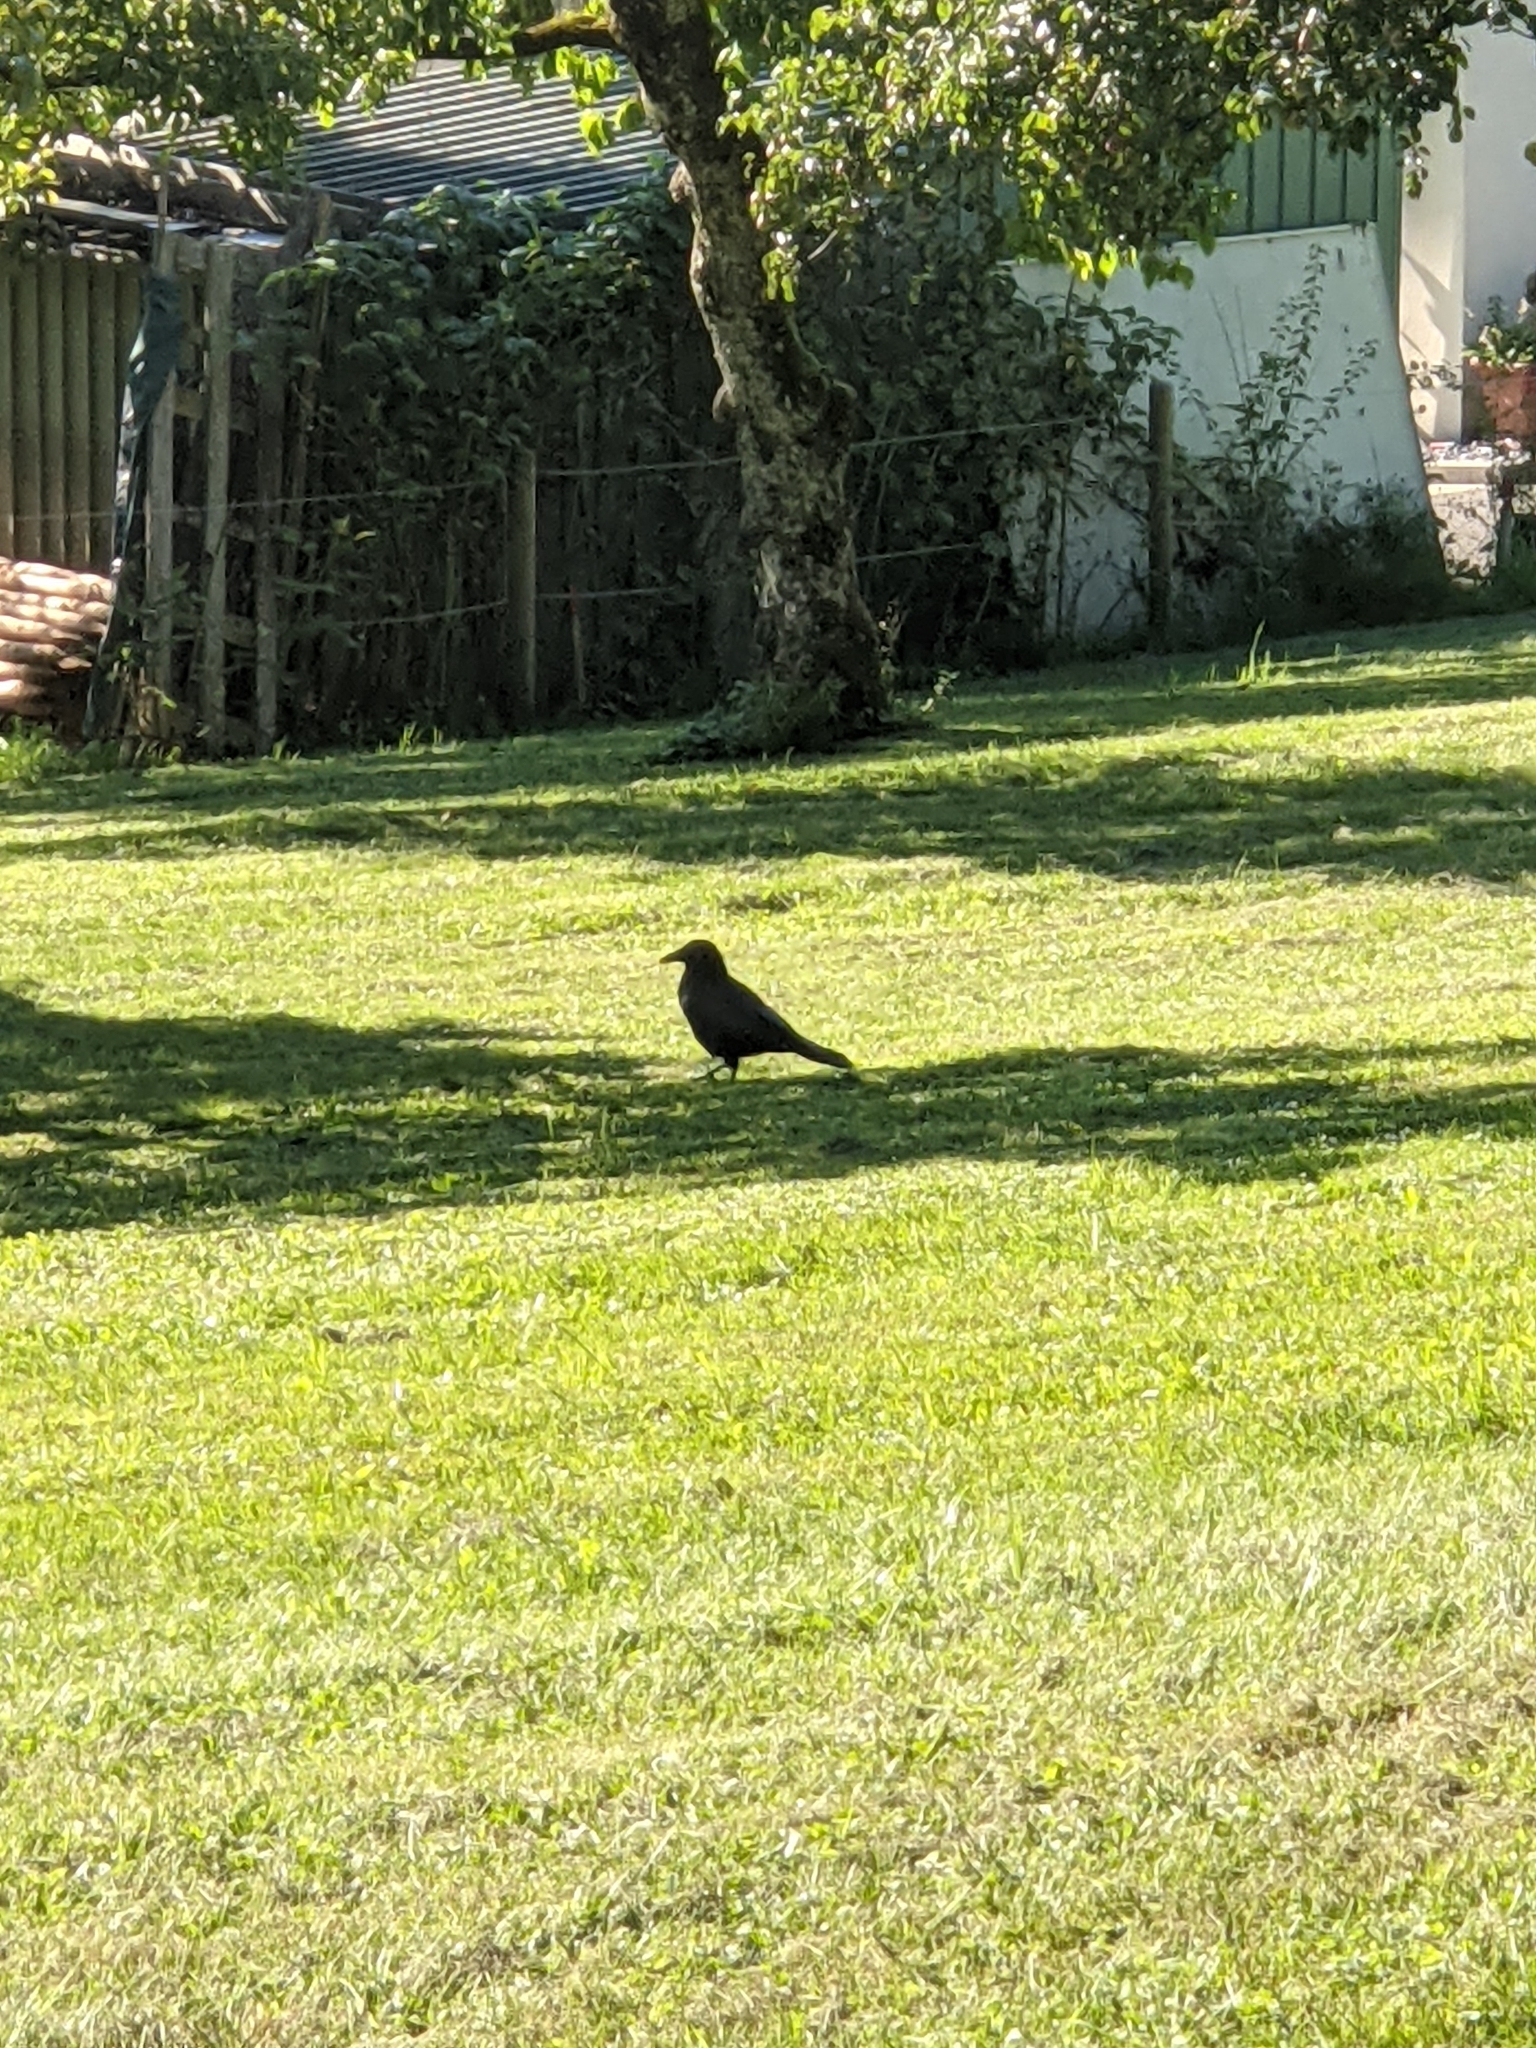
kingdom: Animalia
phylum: Chordata
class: Aves
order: Passeriformes
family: Corvidae
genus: Corvus
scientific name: Corvus corone
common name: Carrion crow
